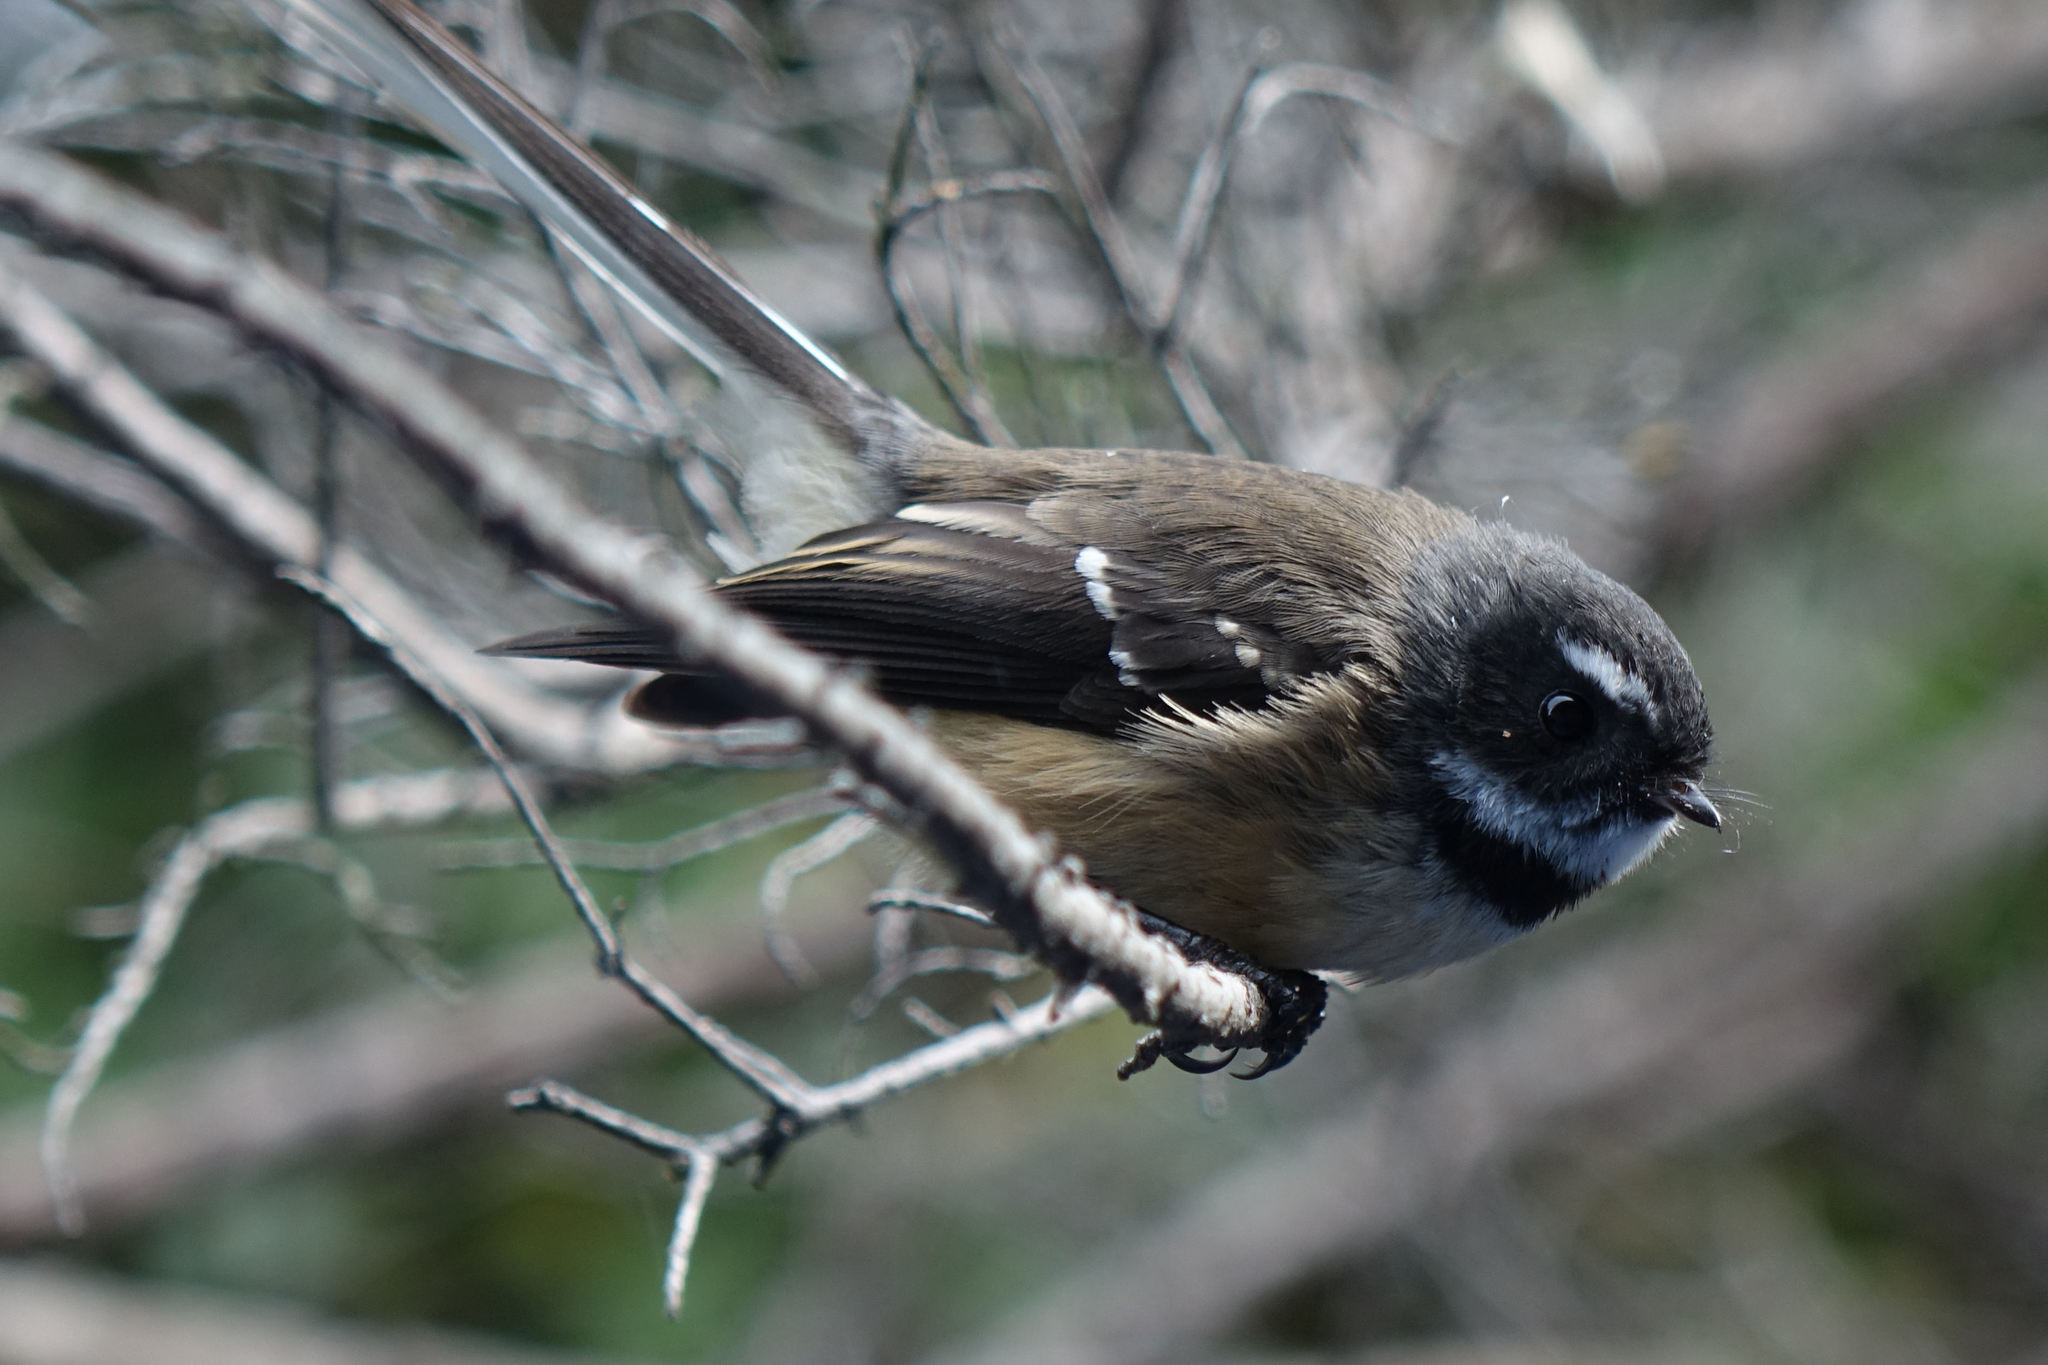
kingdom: Animalia
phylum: Chordata
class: Aves
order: Passeriformes
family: Rhipiduridae
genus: Rhipidura
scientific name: Rhipidura fuliginosa
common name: New zealand fantail
